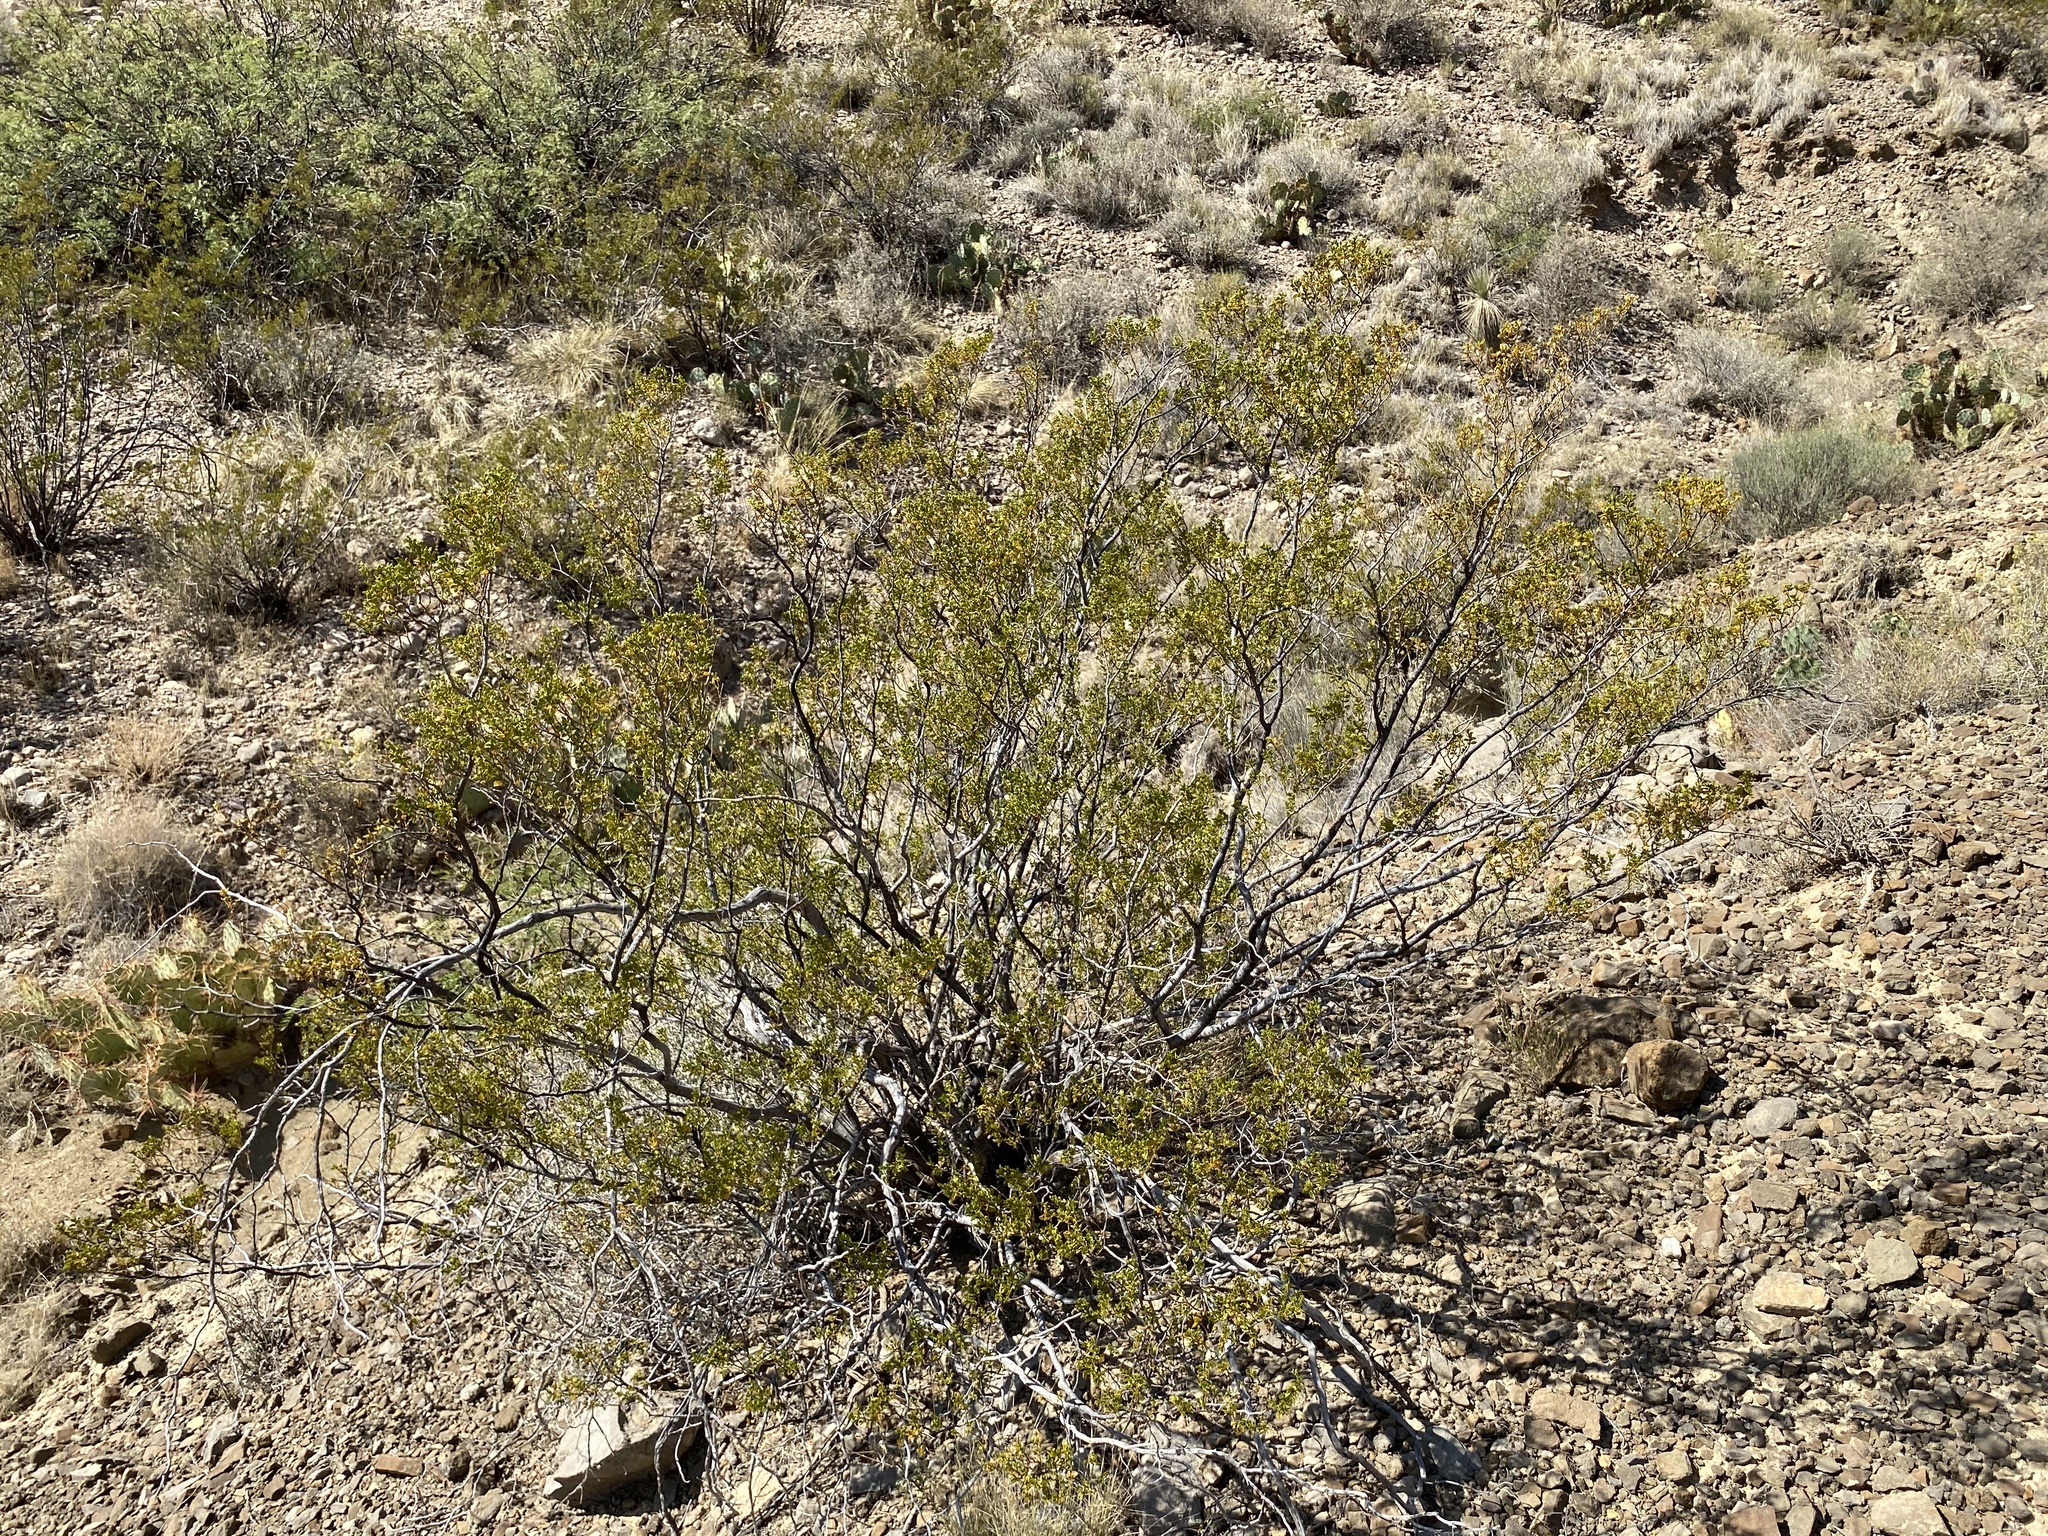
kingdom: Plantae
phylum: Tracheophyta
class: Magnoliopsida
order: Zygophyllales
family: Zygophyllaceae
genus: Larrea
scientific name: Larrea tridentata
